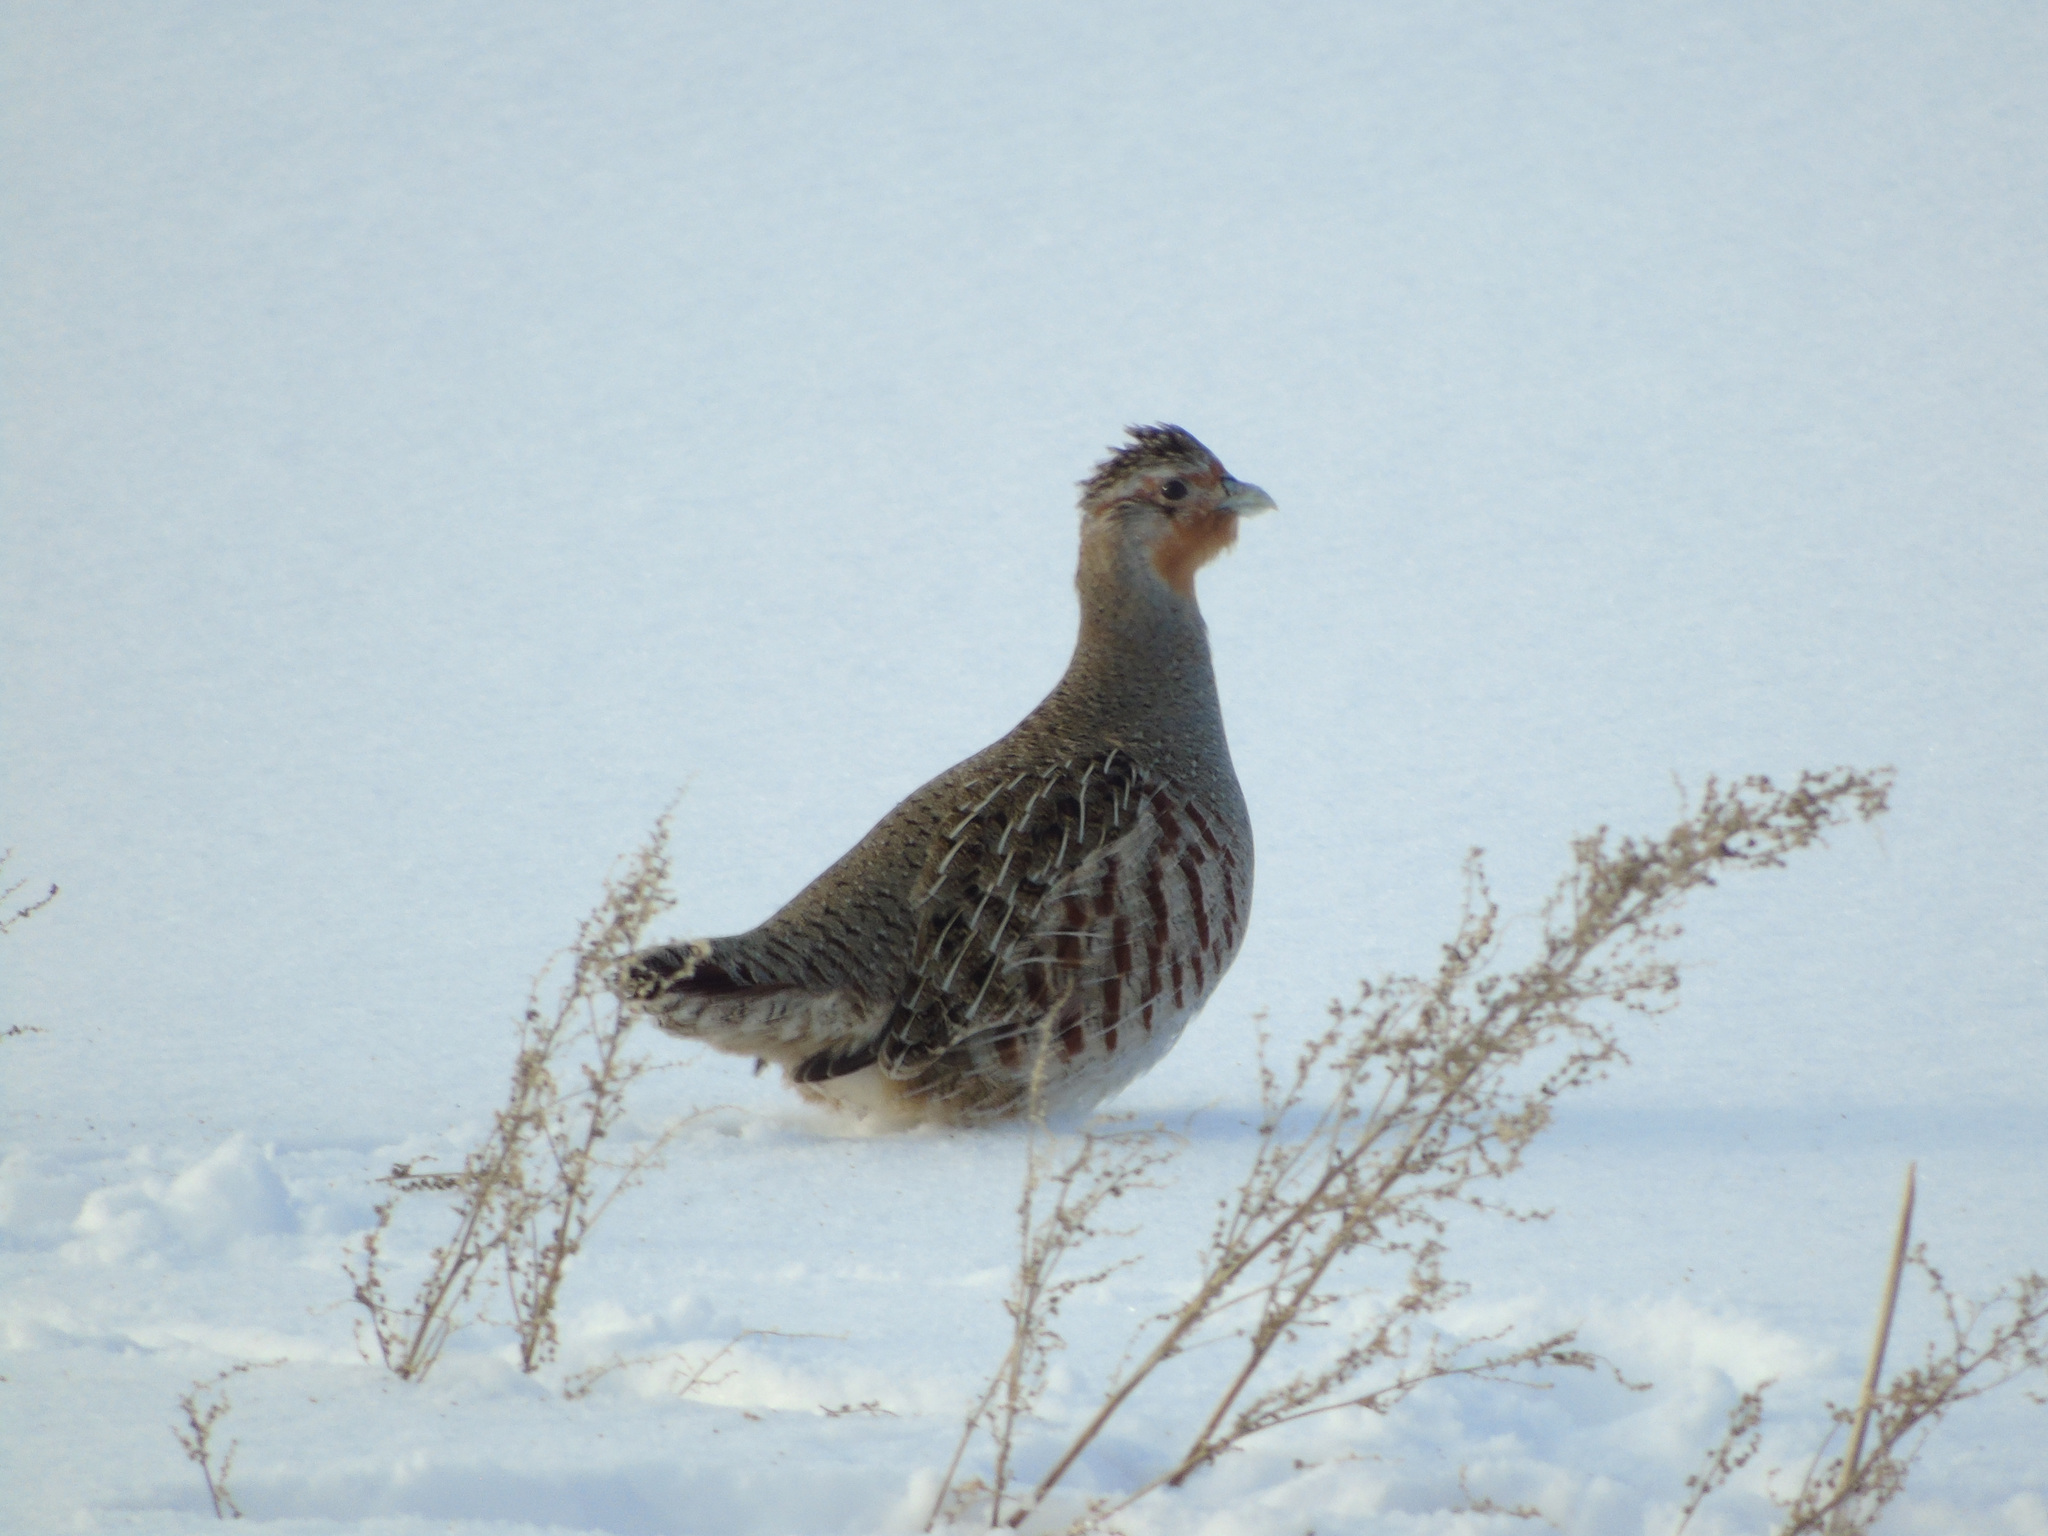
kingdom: Animalia
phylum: Chordata
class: Aves
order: Galliformes
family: Phasianidae
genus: Perdix
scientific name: Perdix perdix
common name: Grey partridge
